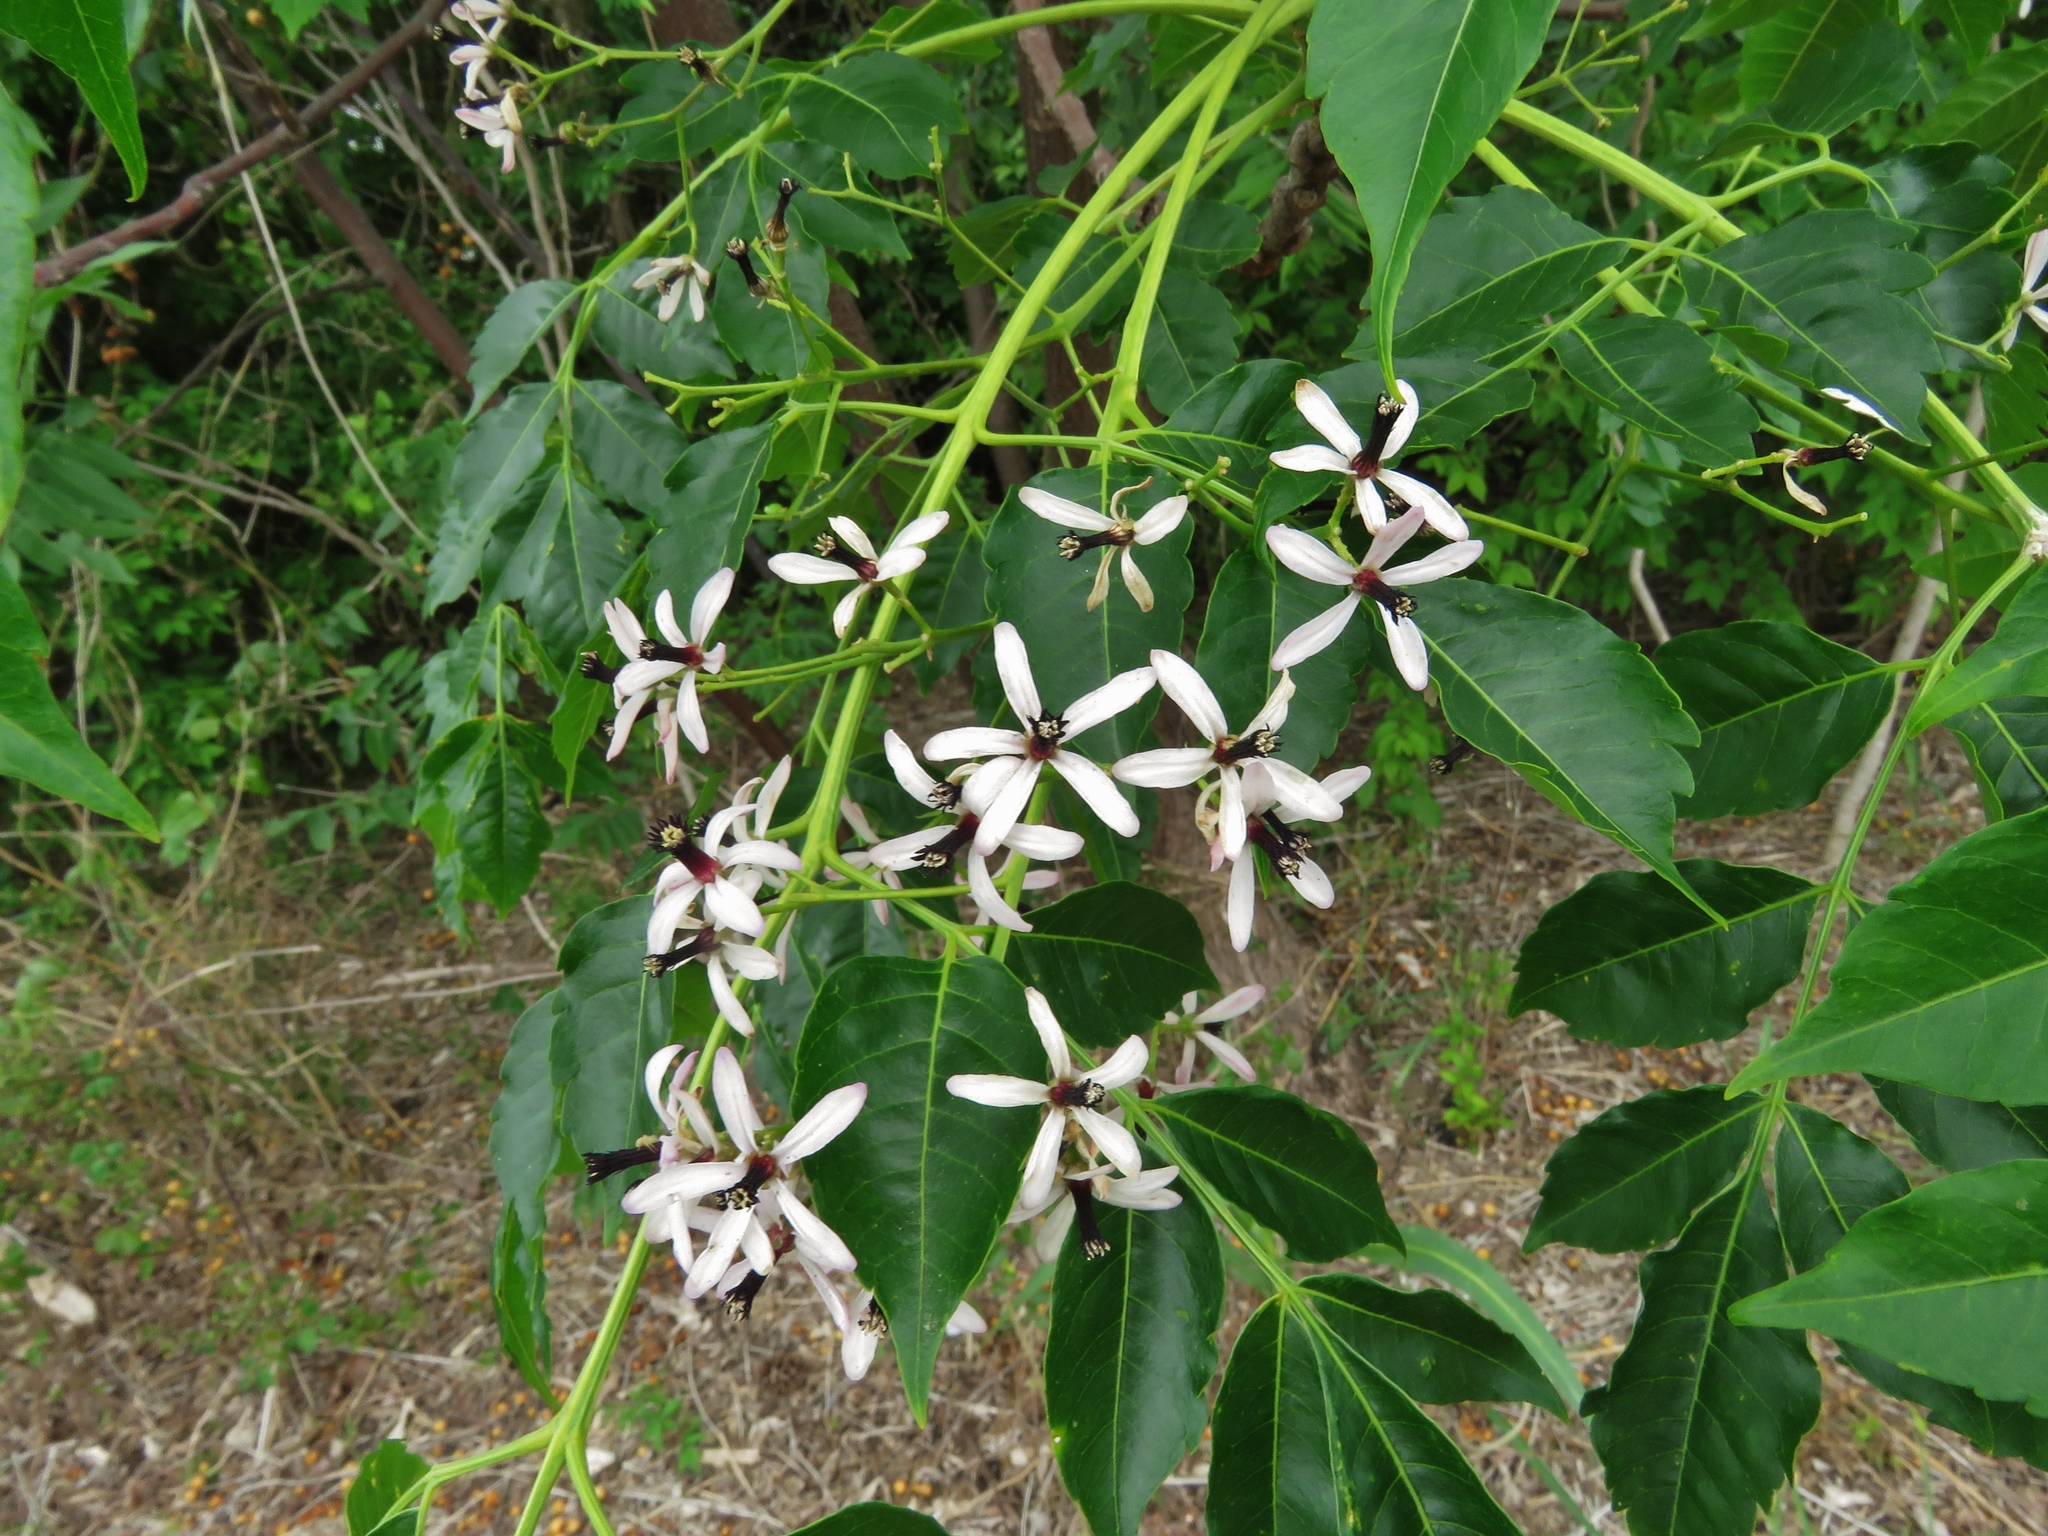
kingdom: Plantae
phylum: Tracheophyta
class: Magnoliopsida
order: Sapindales
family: Meliaceae
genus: Melia
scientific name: Melia azedarach
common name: Chinaberrytree
